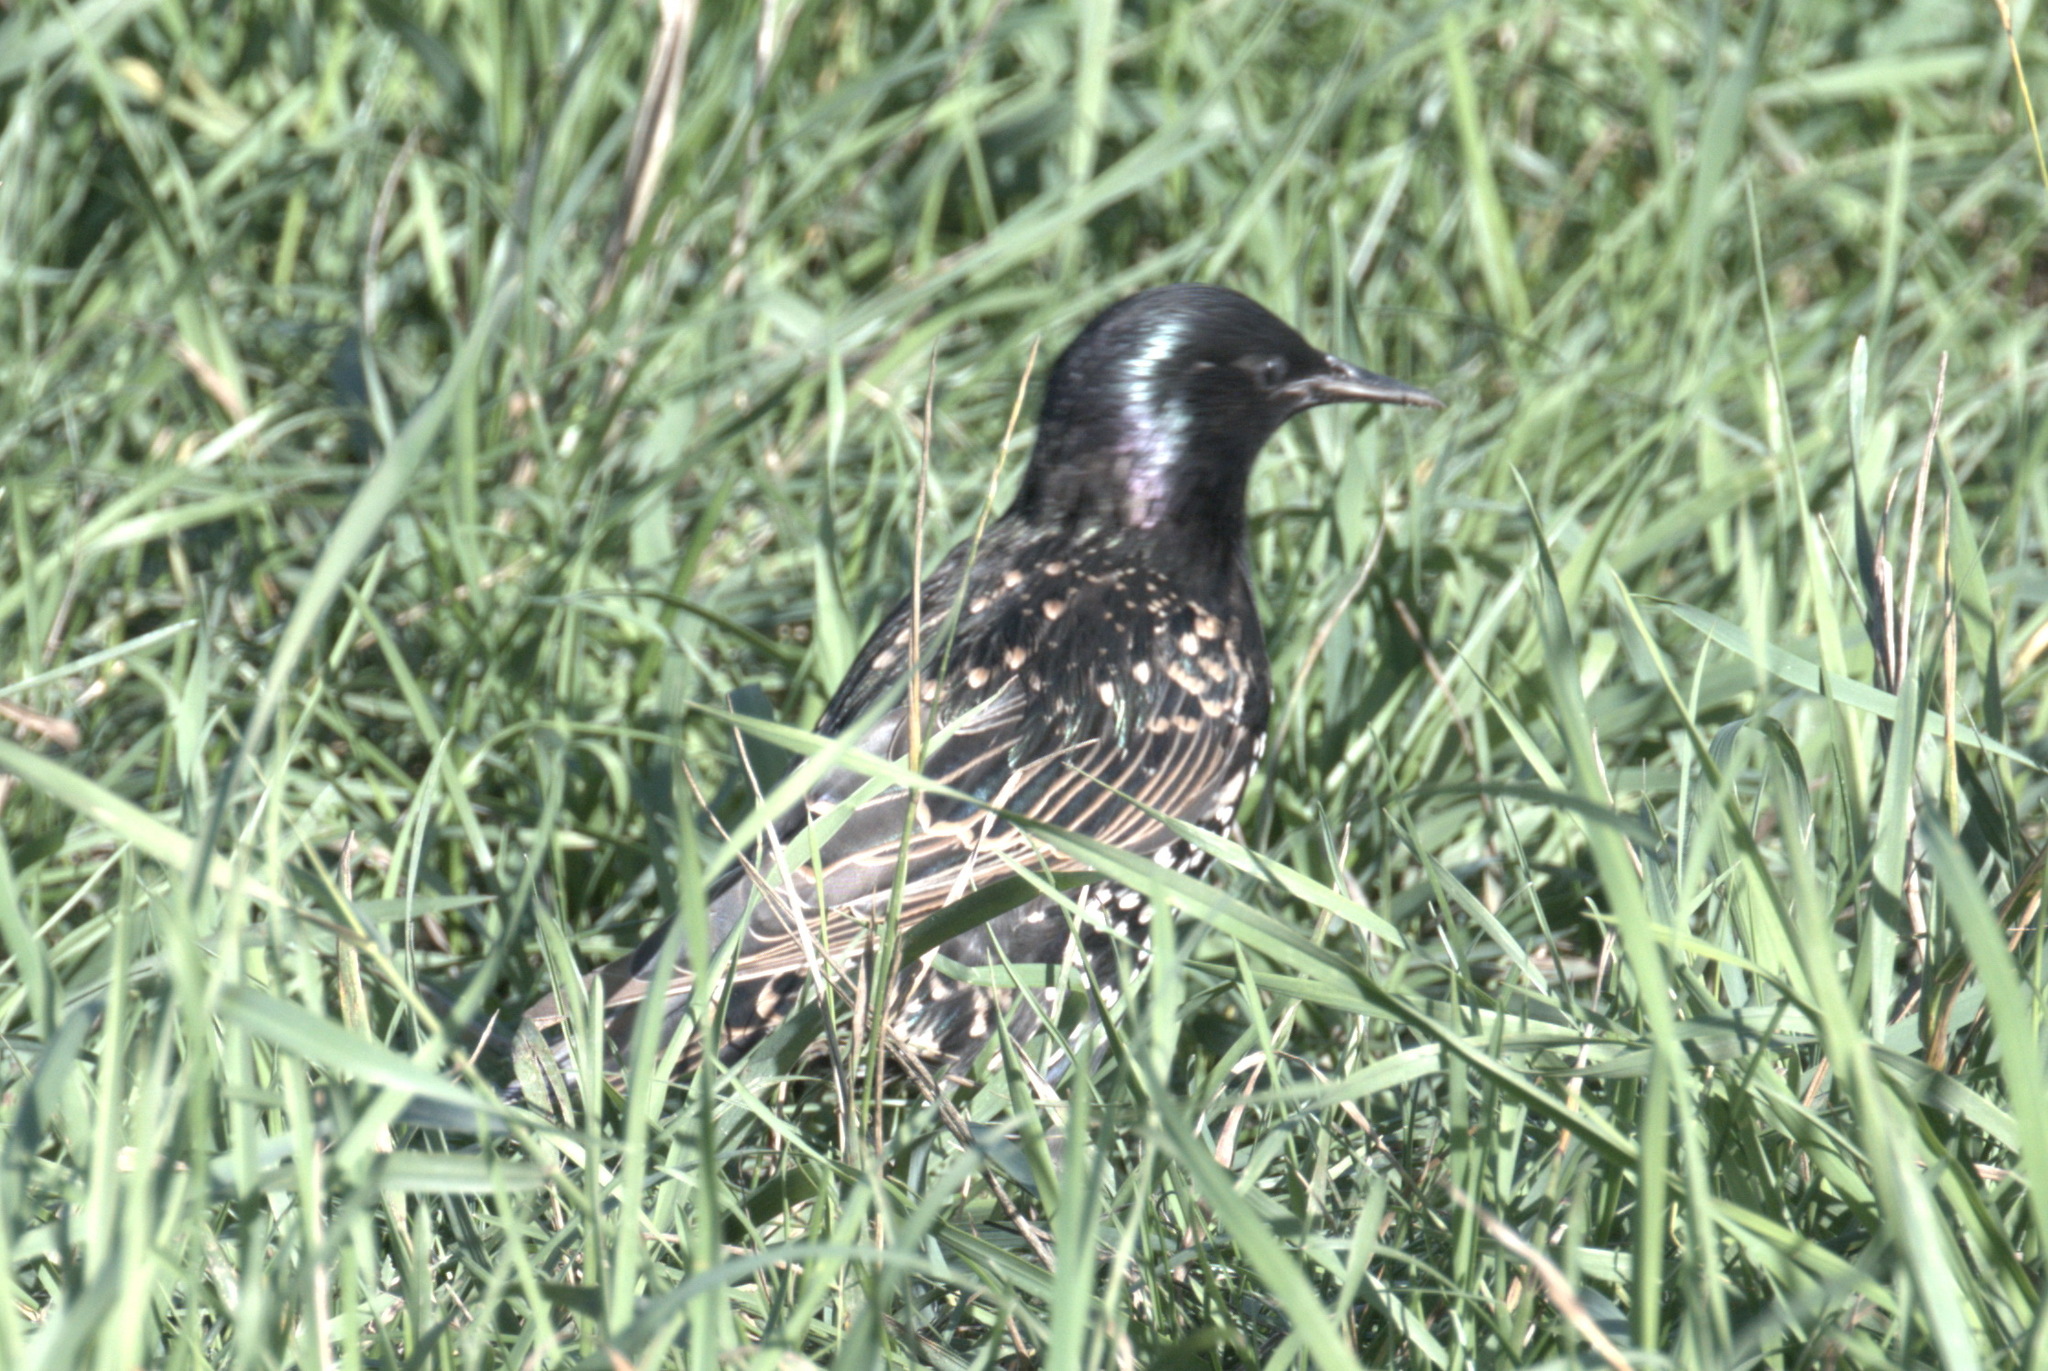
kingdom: Animalia
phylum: Chordata
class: Aves
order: Passeriformes
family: Sturnidae
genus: Sturnus
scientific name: Sturnus vulgaris
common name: Common starling
